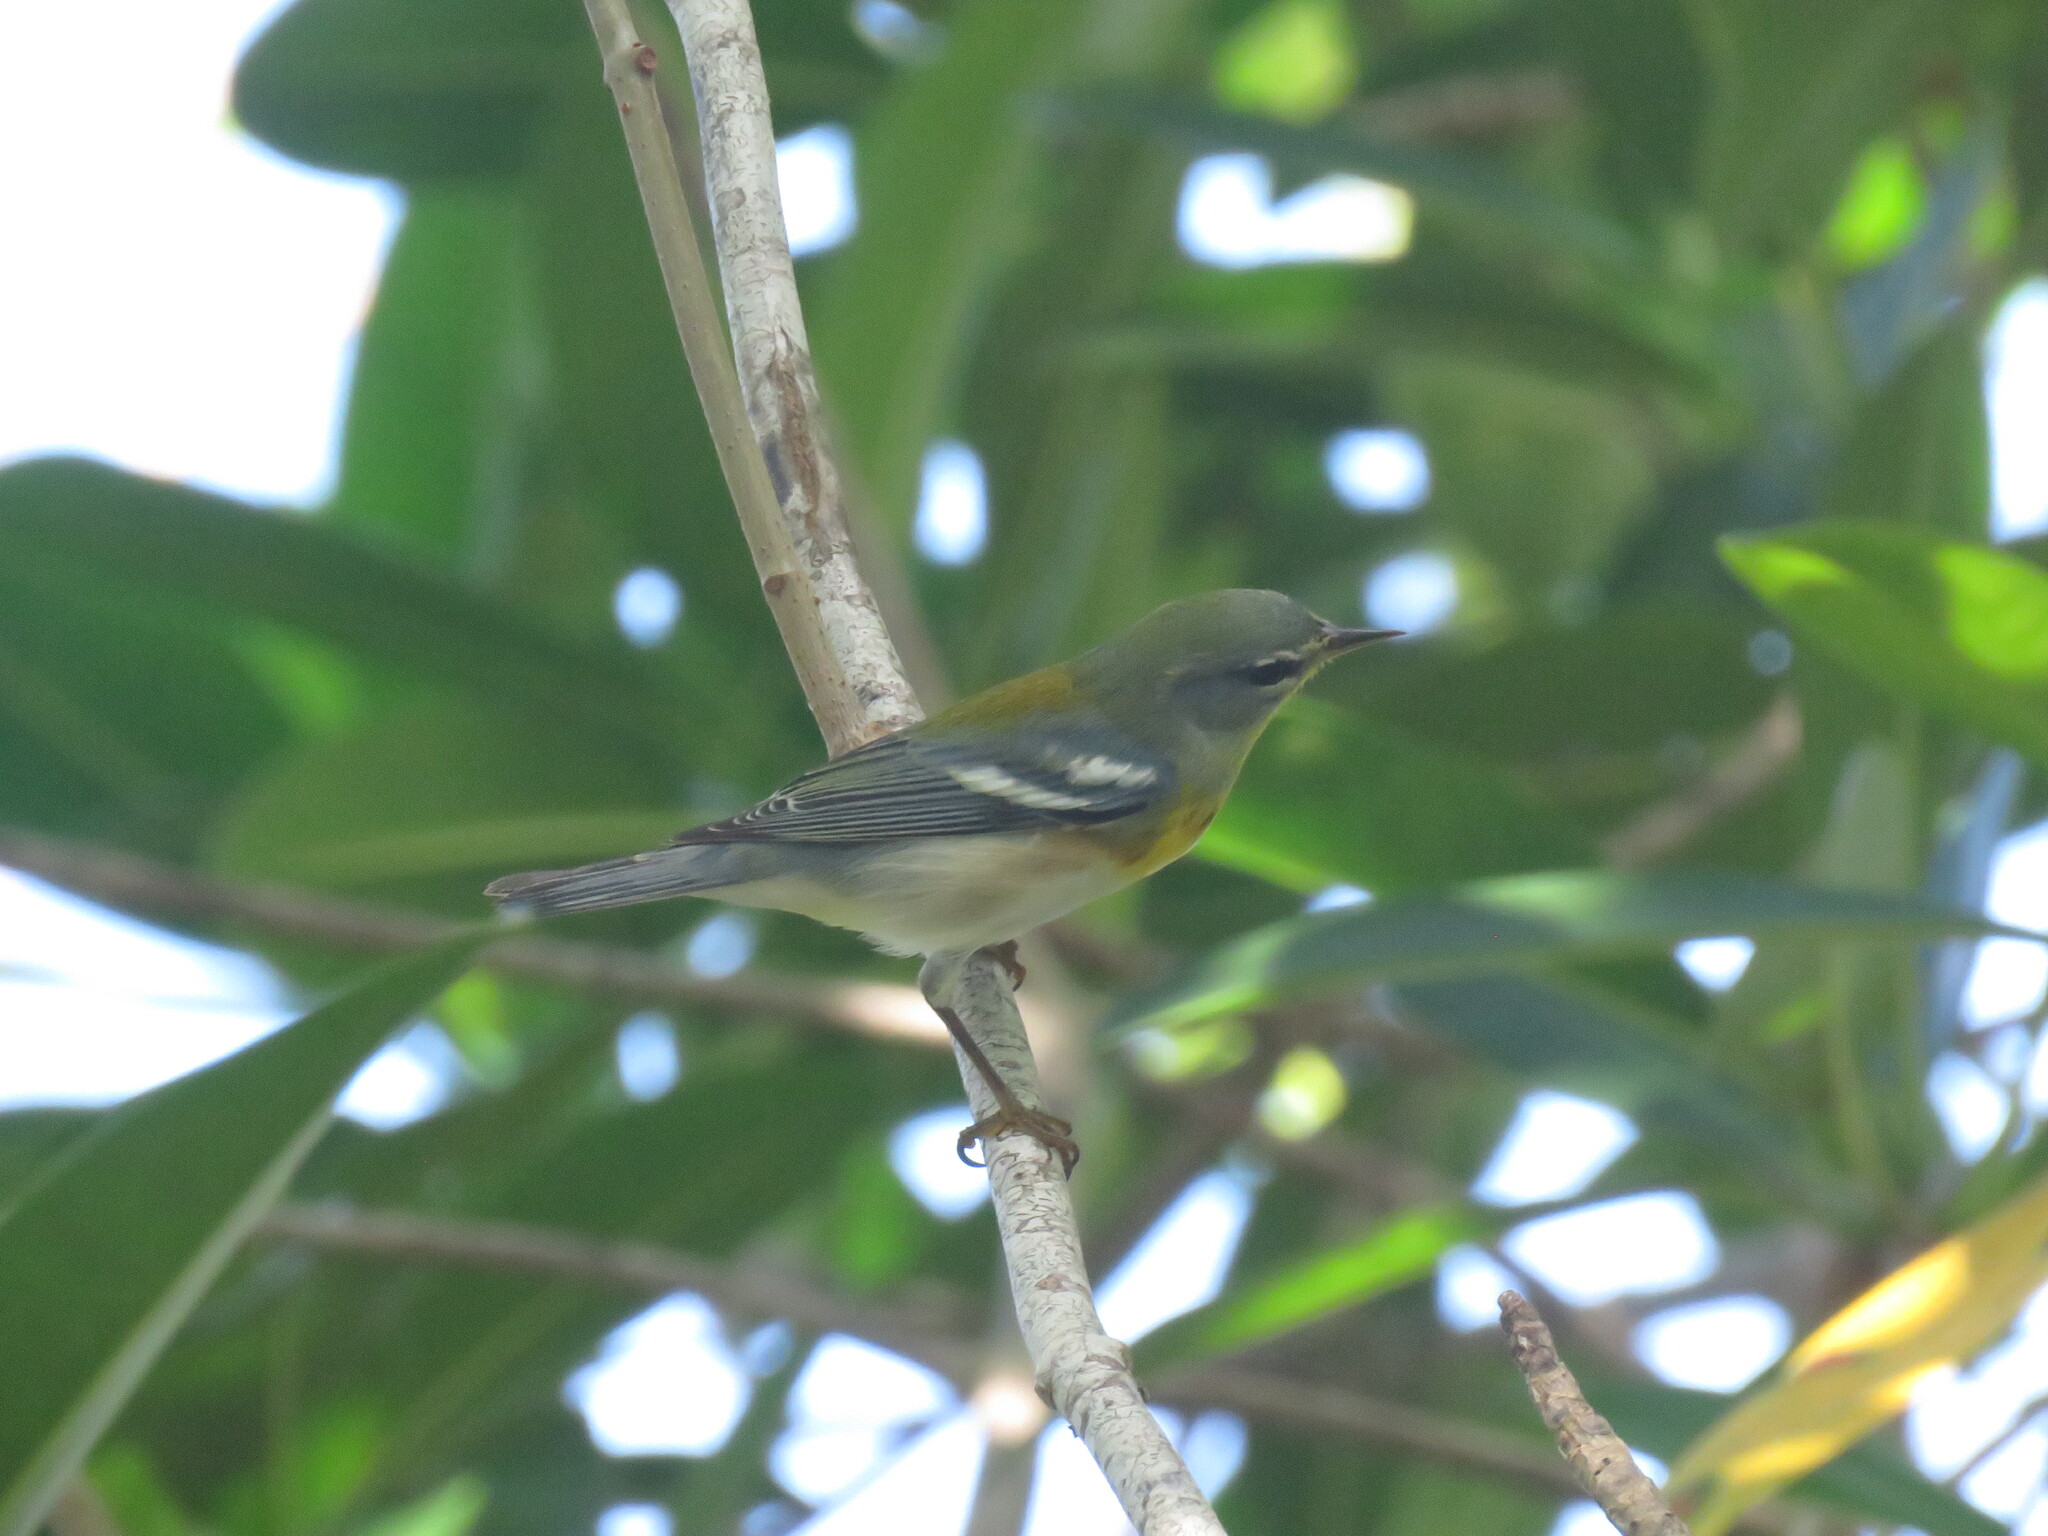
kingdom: Animalia
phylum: Chordata
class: Aves
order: Passeriformes
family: Parulidae
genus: Setophaga
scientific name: Setophaga americana
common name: Northern parula
